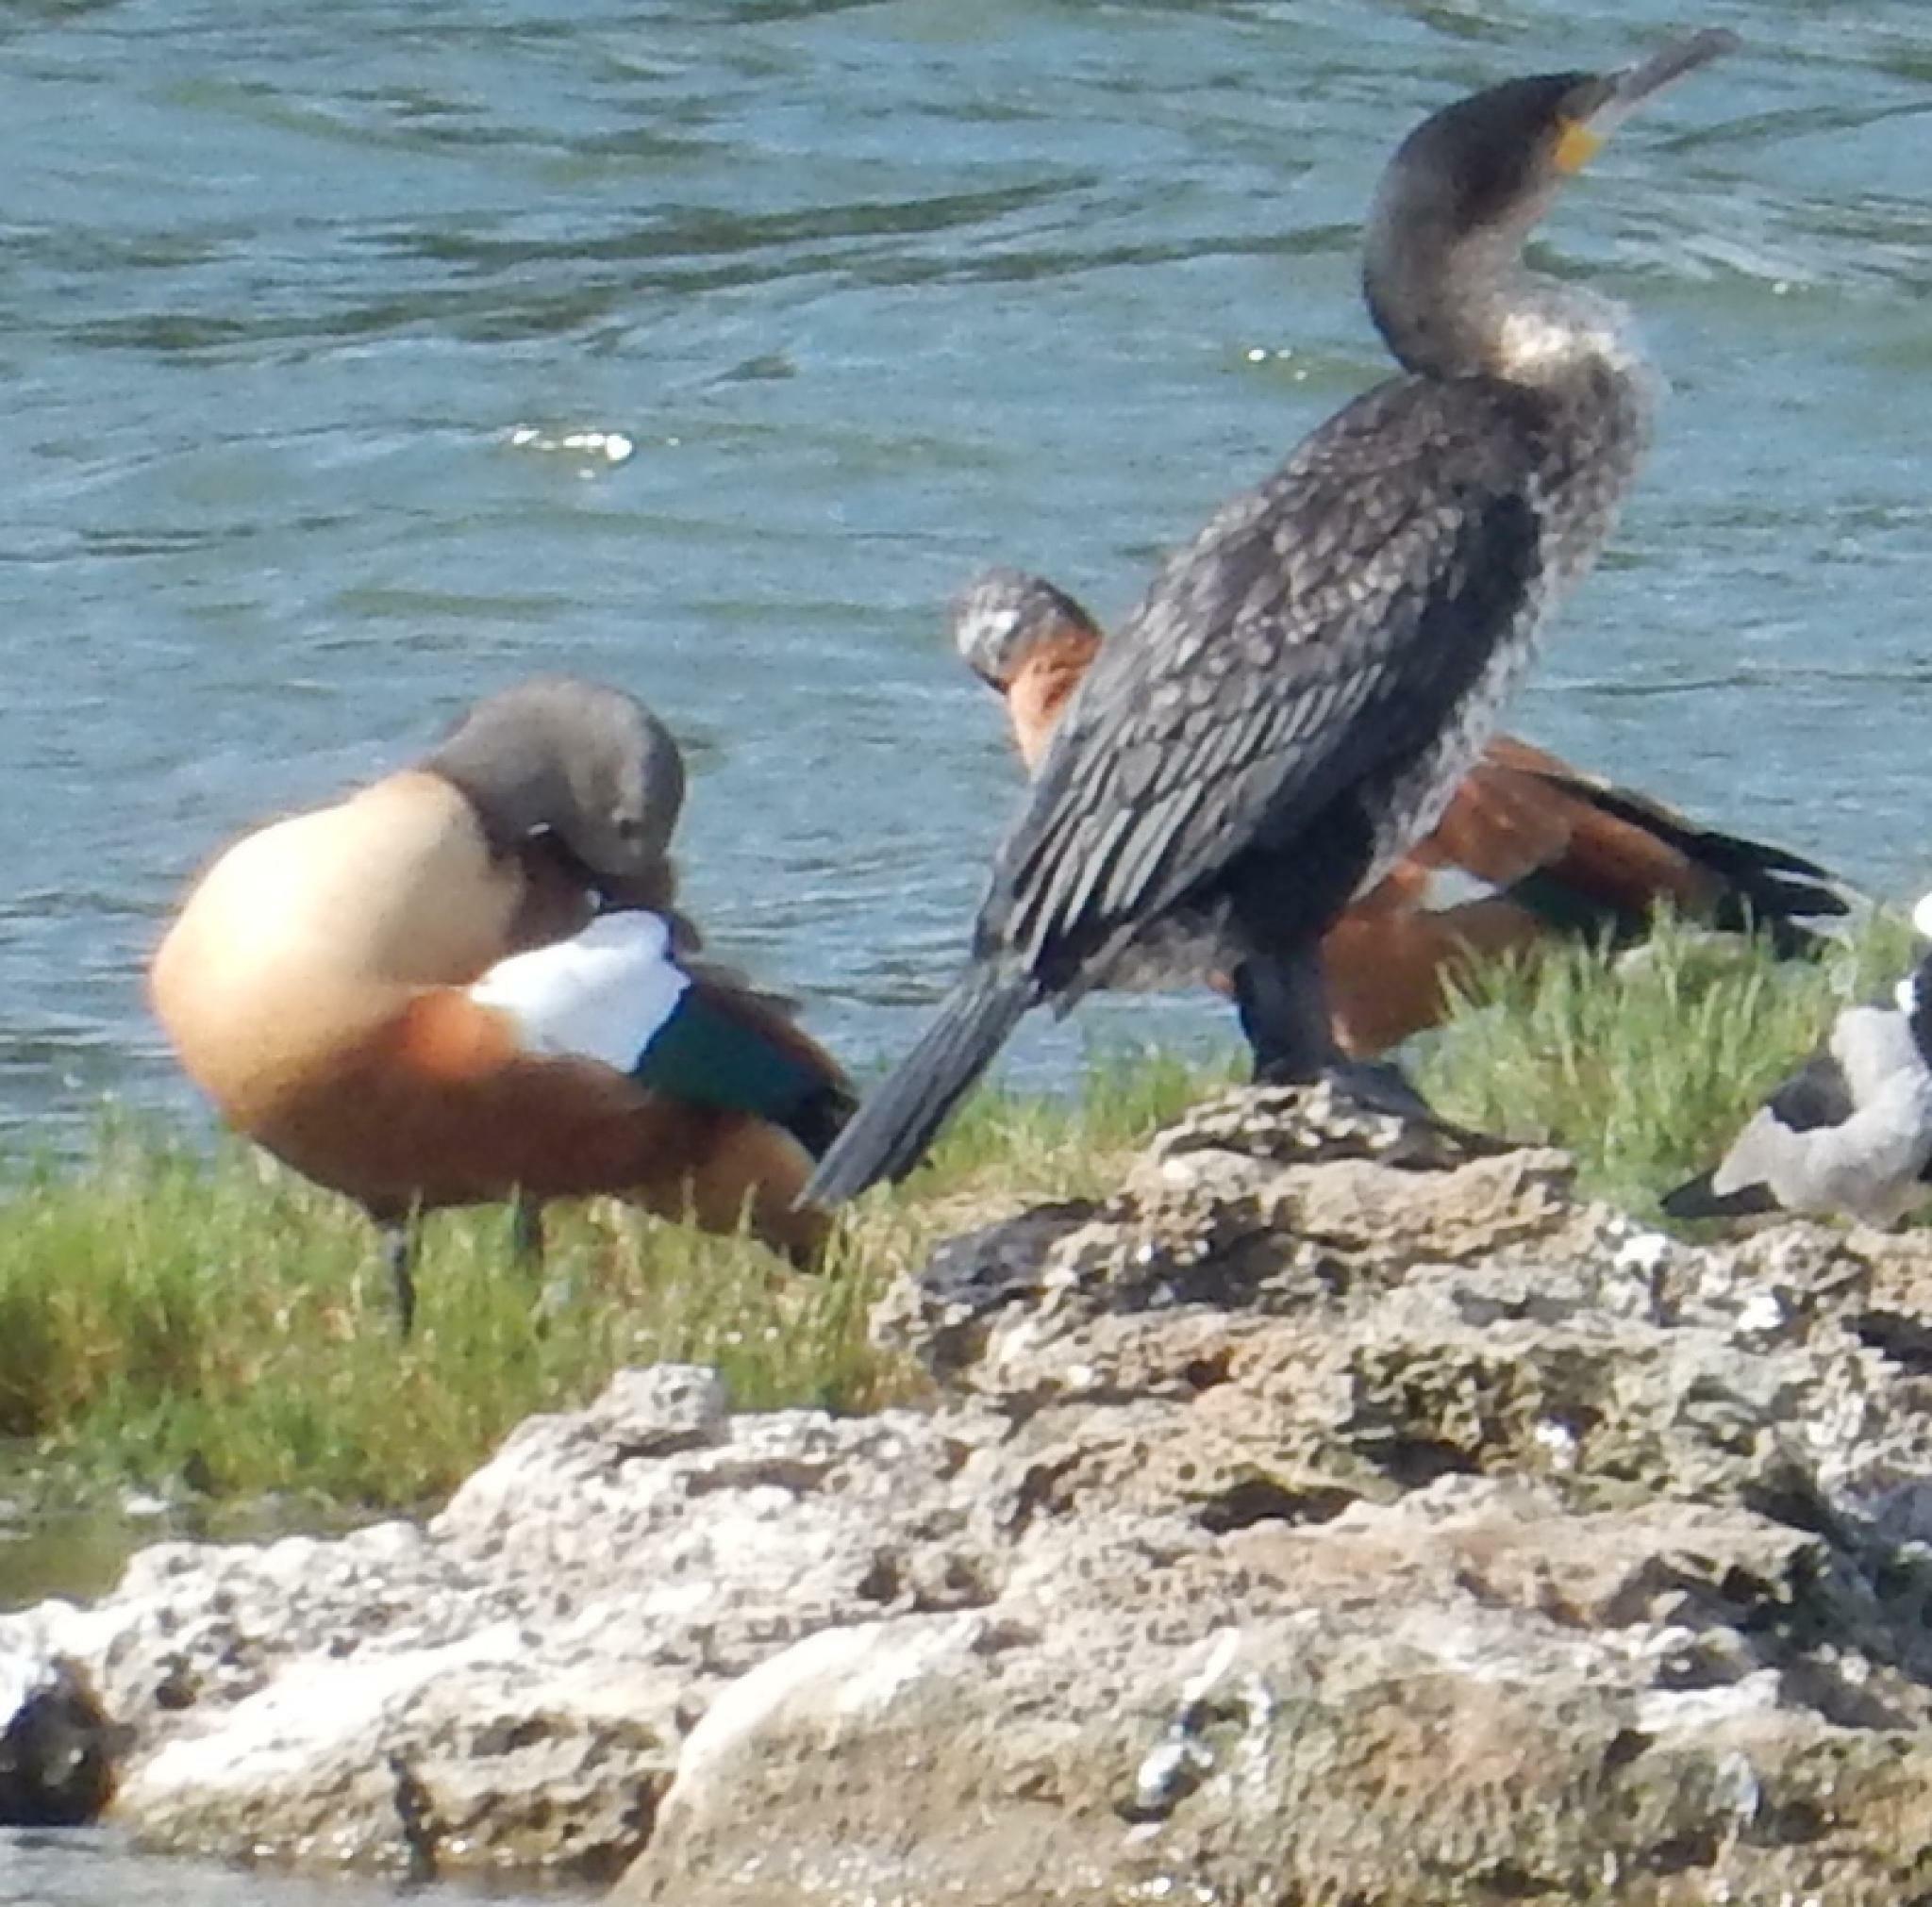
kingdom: Animalia
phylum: Chordata
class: Aves
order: Anseriformes
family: Anatidae
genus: Tadorna
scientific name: Tadorna cana
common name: South african shelduck
